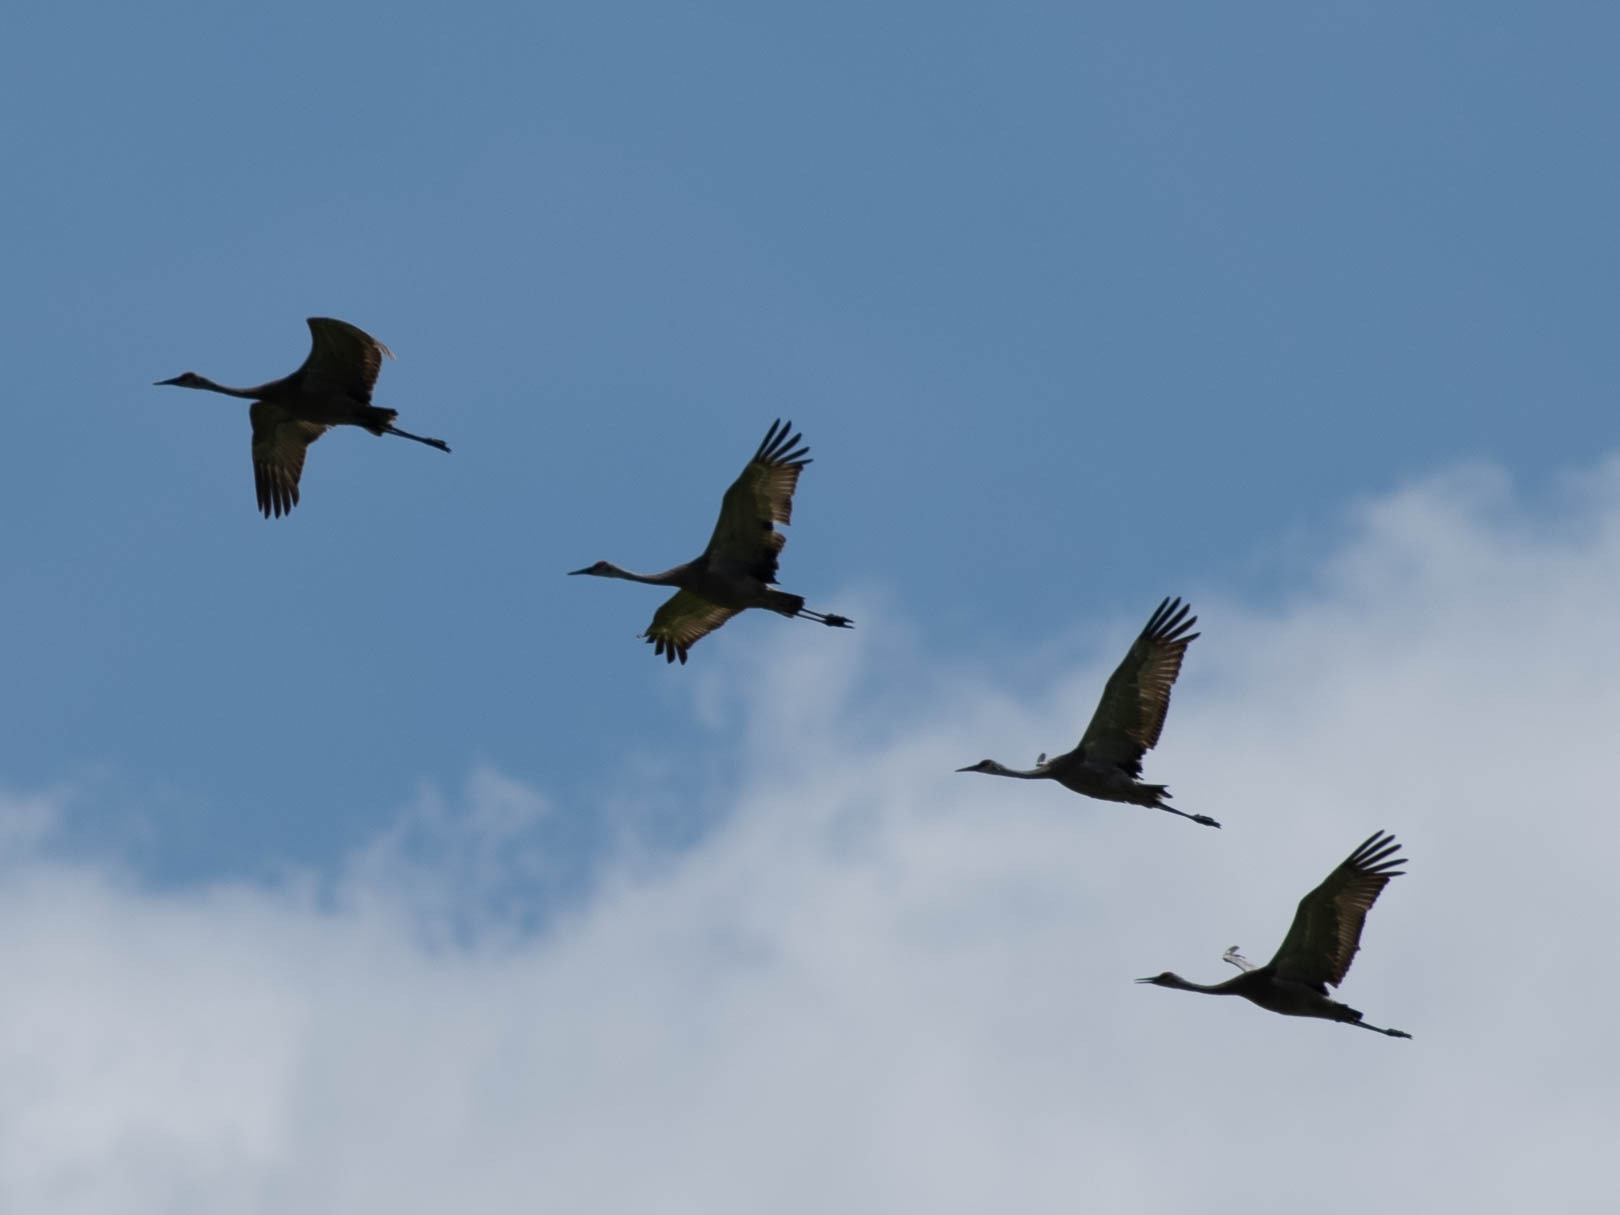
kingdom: Animalia
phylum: Chordata
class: Aves
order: Gruiformes
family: Gruidae
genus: Grus
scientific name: Grus canadensis
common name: Sandhill crane
